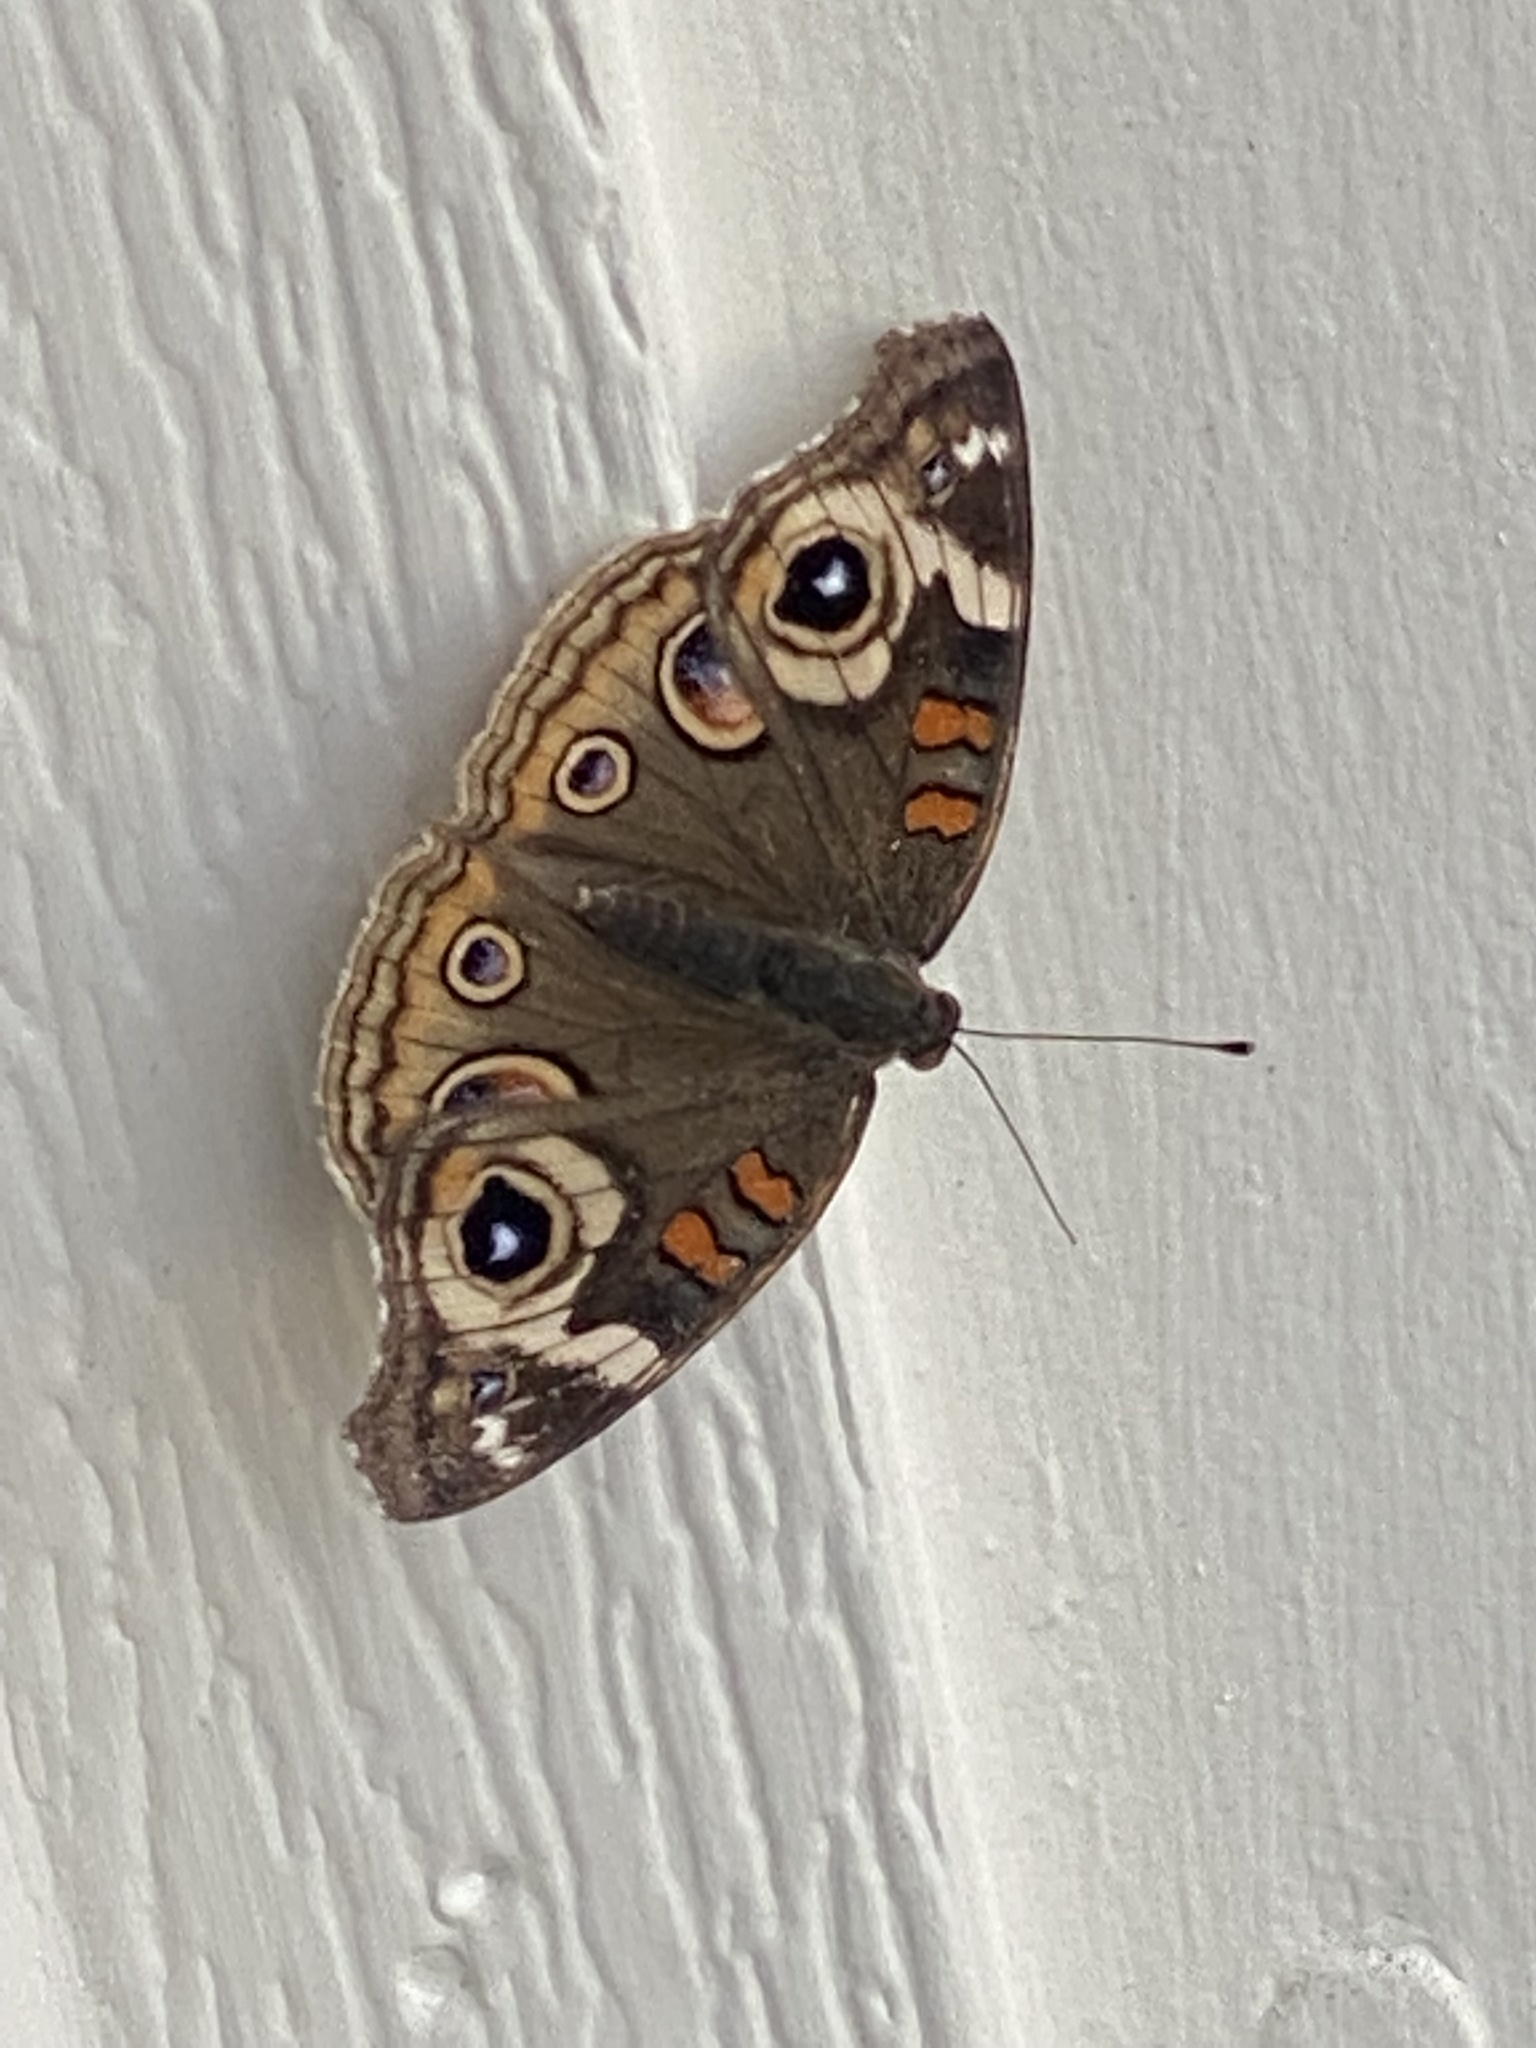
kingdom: Animalia
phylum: Arthropoda
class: Insecta
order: Lepidoptera
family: Nymphalidae
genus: Junonia
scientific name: Junonia grisea
